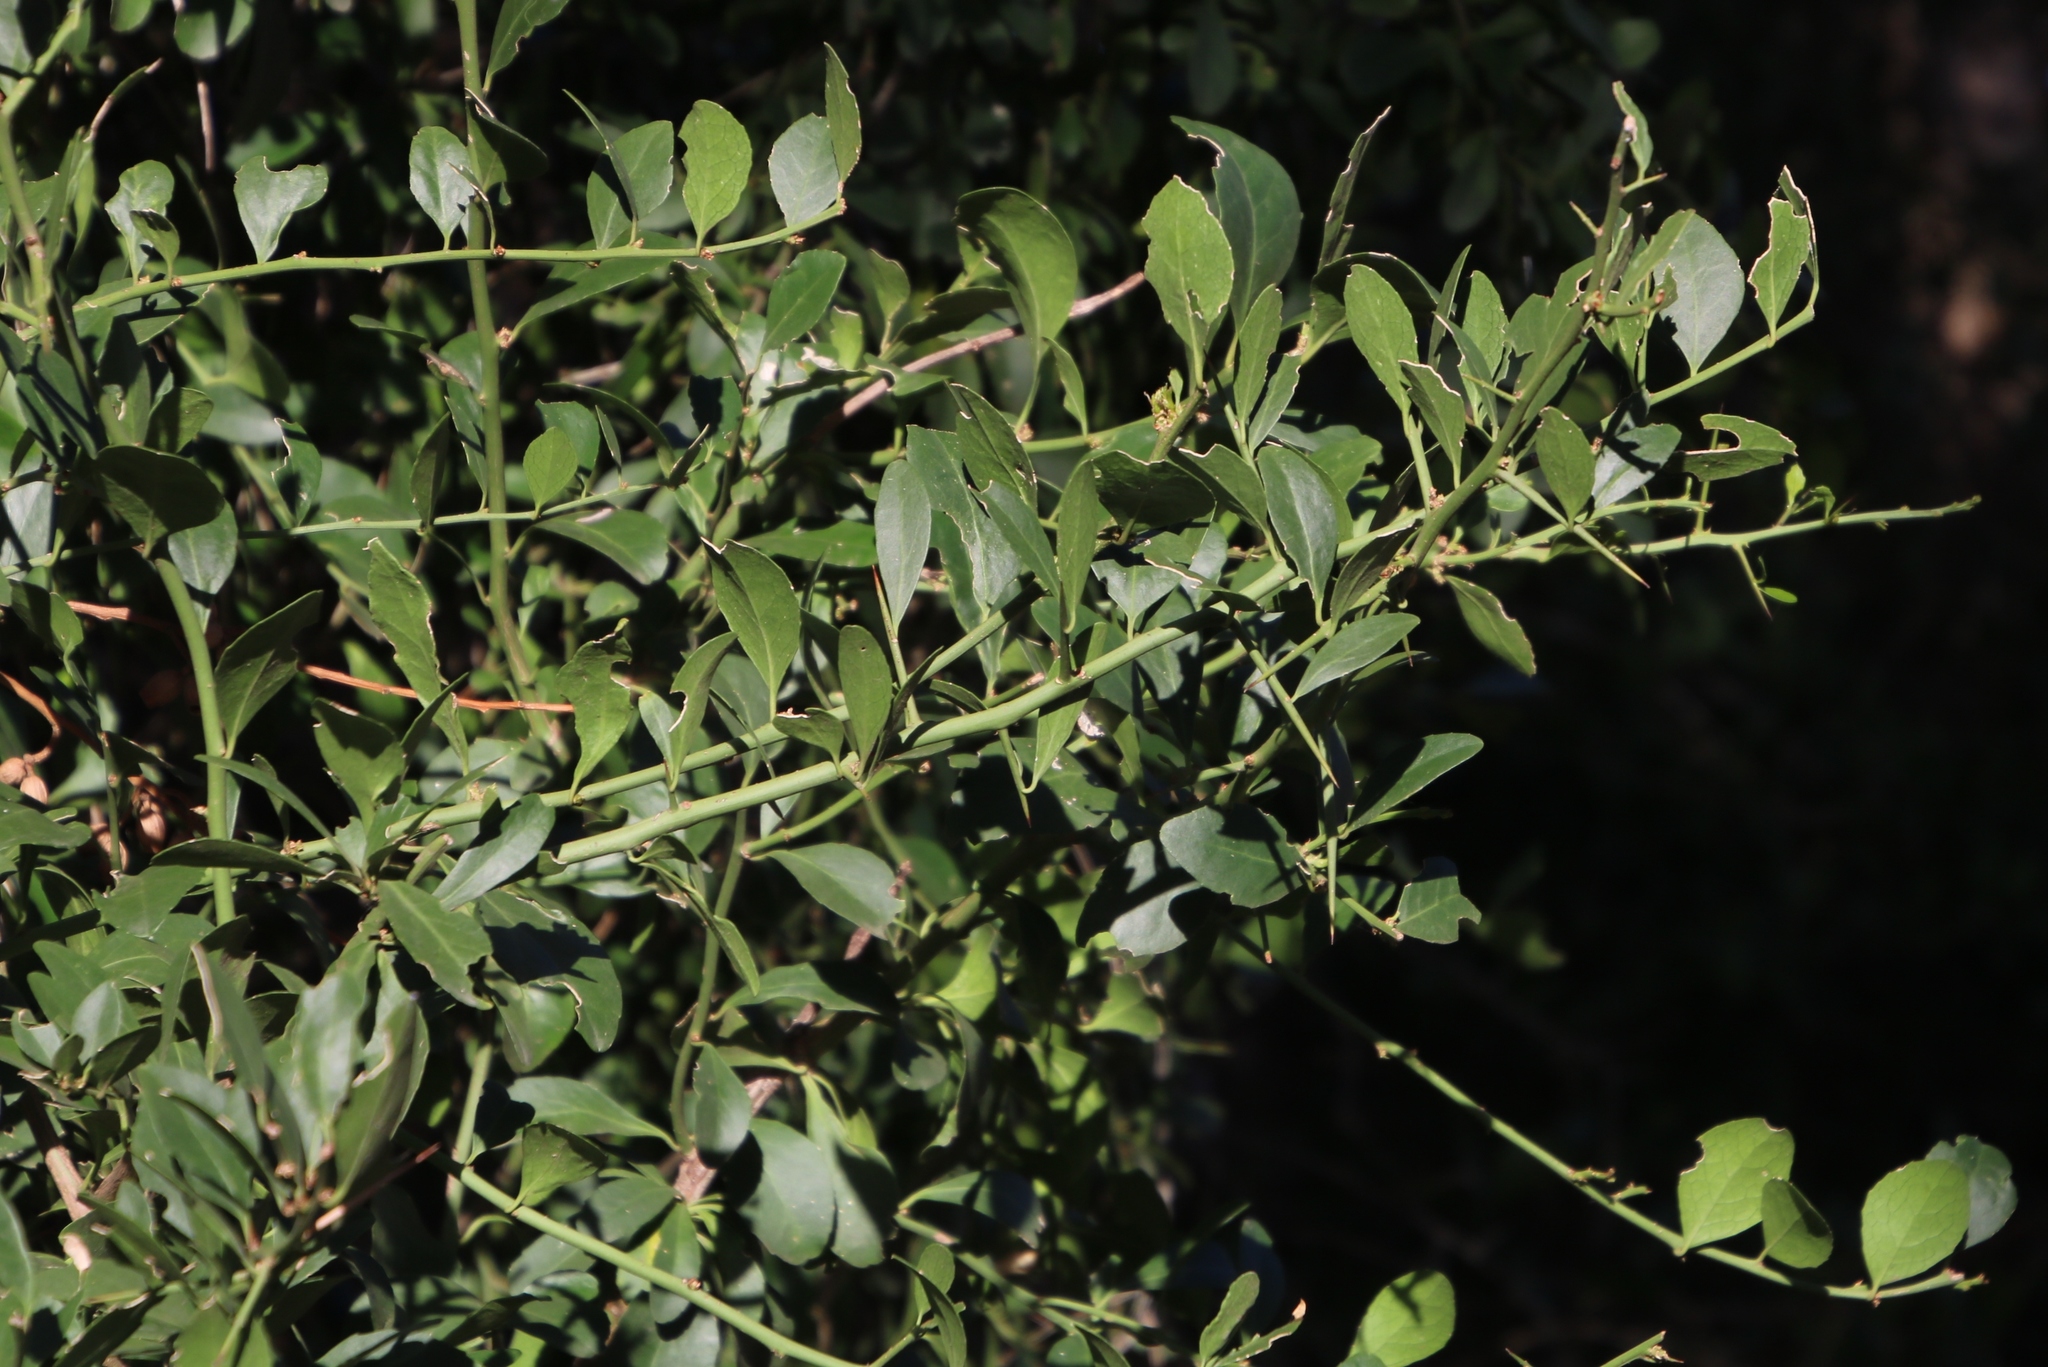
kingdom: Plantae
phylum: Tracheophyta
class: Magnoliopsida
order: Celastrales
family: Celastraceae
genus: Gymnosporia
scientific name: Gymnosporia buxifolia
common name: Common spike-thorn
